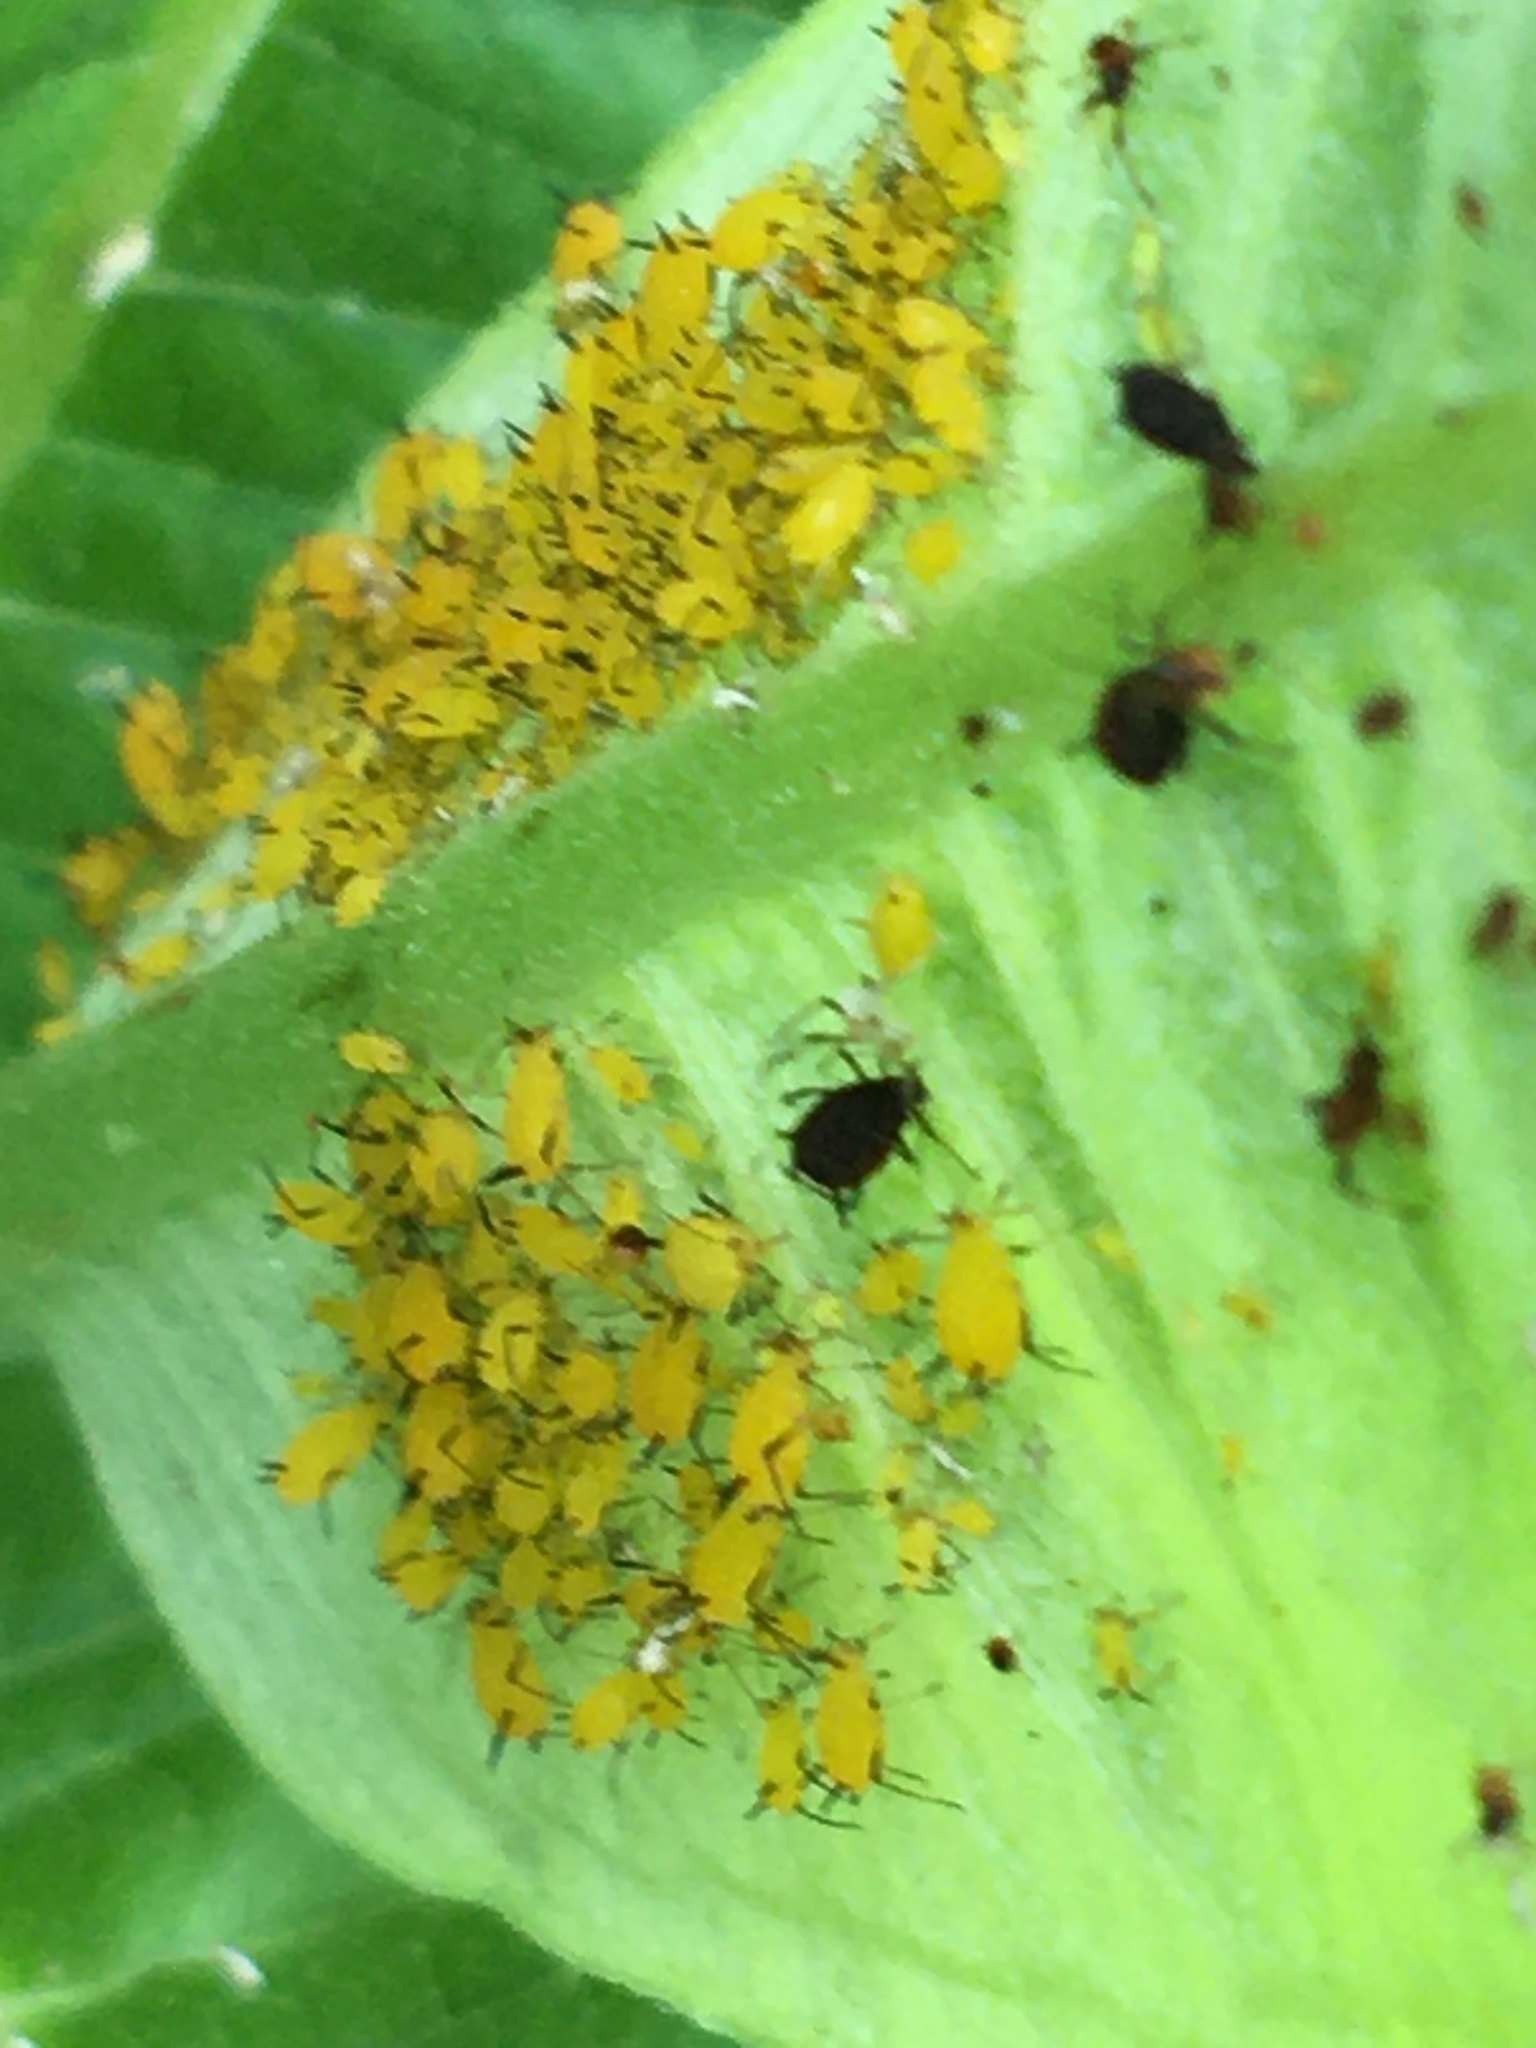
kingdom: Animalia
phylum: Arthropoda
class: Insecta
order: Hemiptera
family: Aphididae
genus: Aphis
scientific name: Aphis nerii
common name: Oleander aphid
